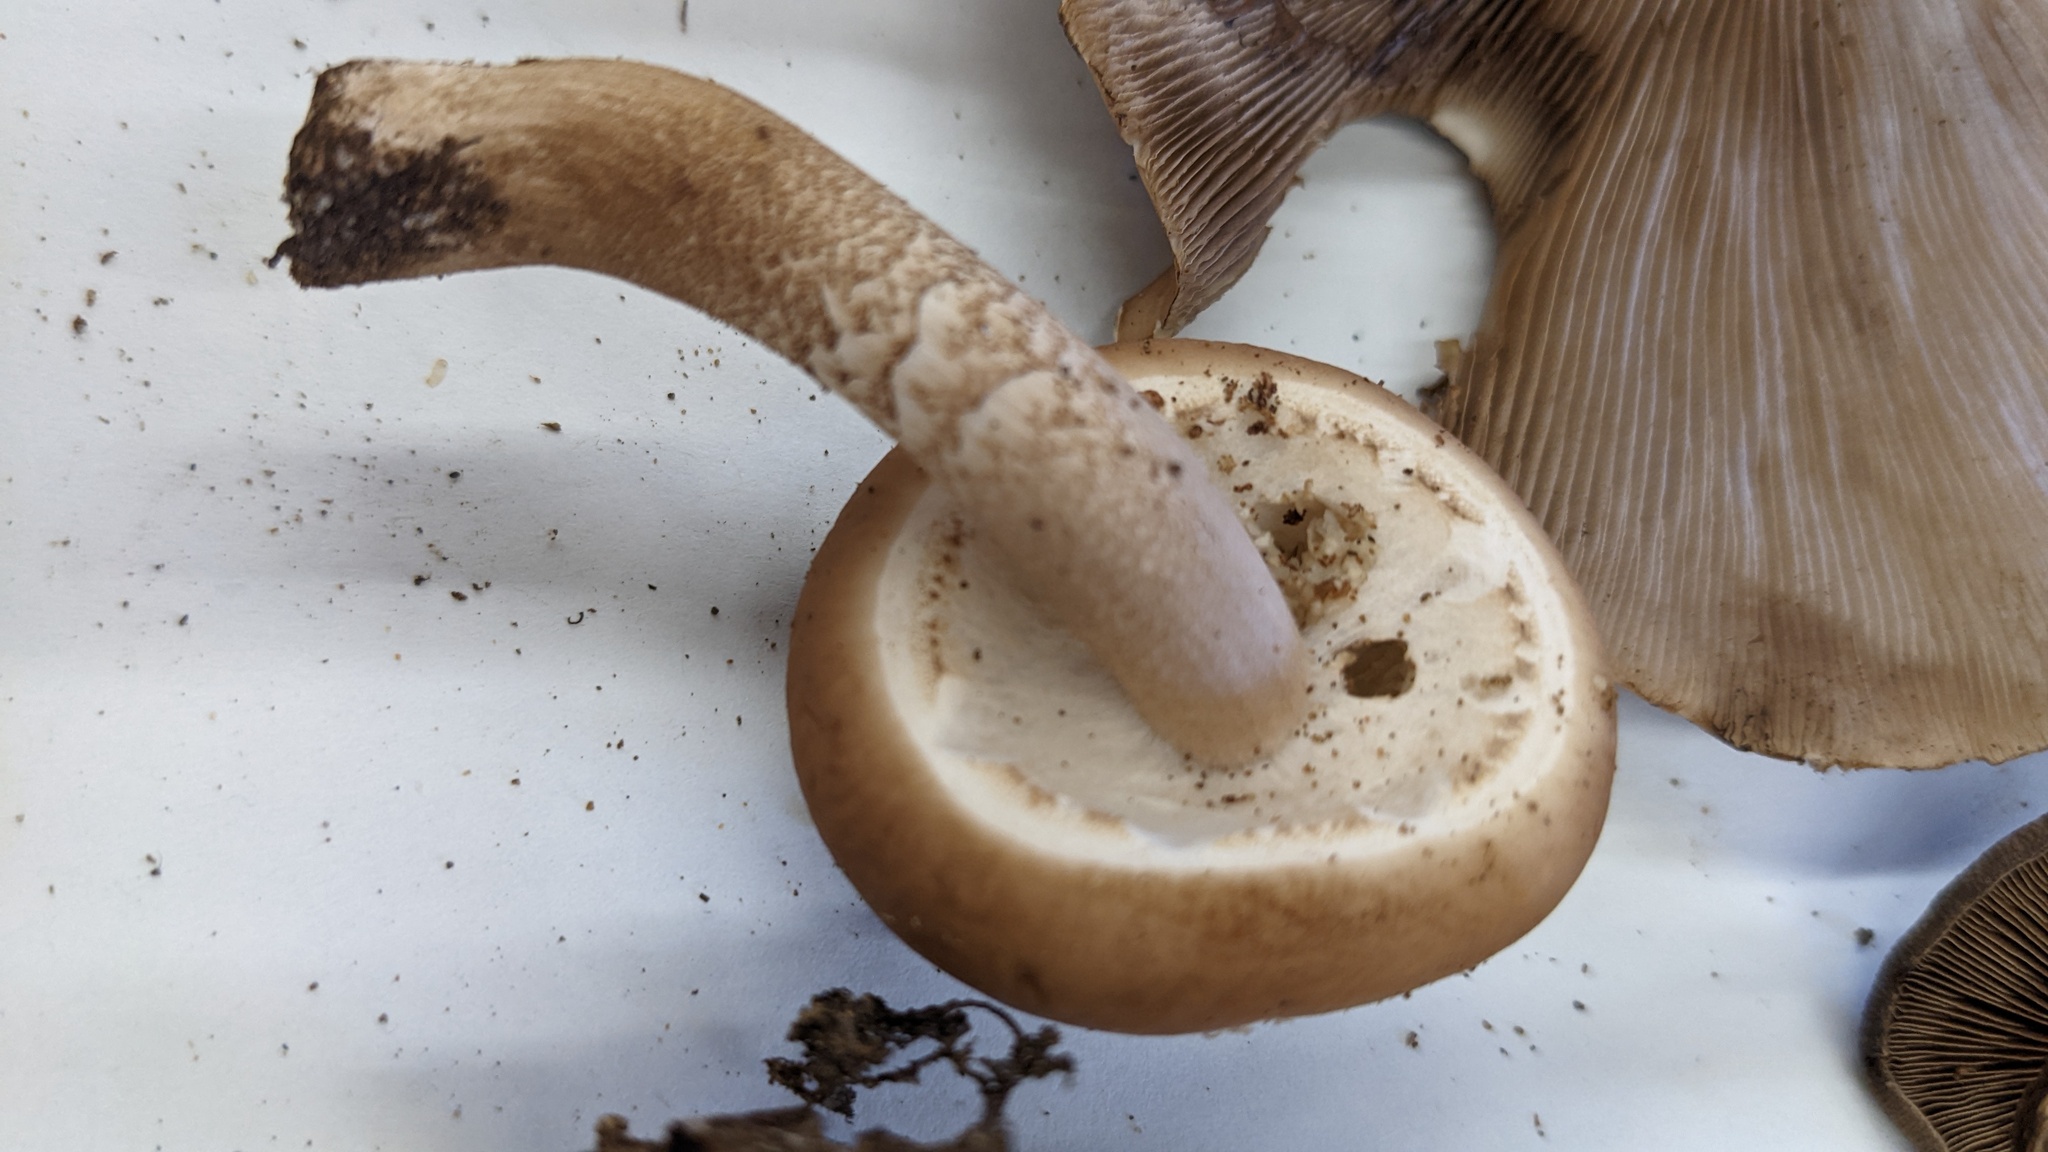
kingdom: Fungi
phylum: Basidiomycota
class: Agaricomycetes
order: Agaricales
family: Tubariaceae
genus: Cyclocybe
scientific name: Cyclocybe cylindracea
